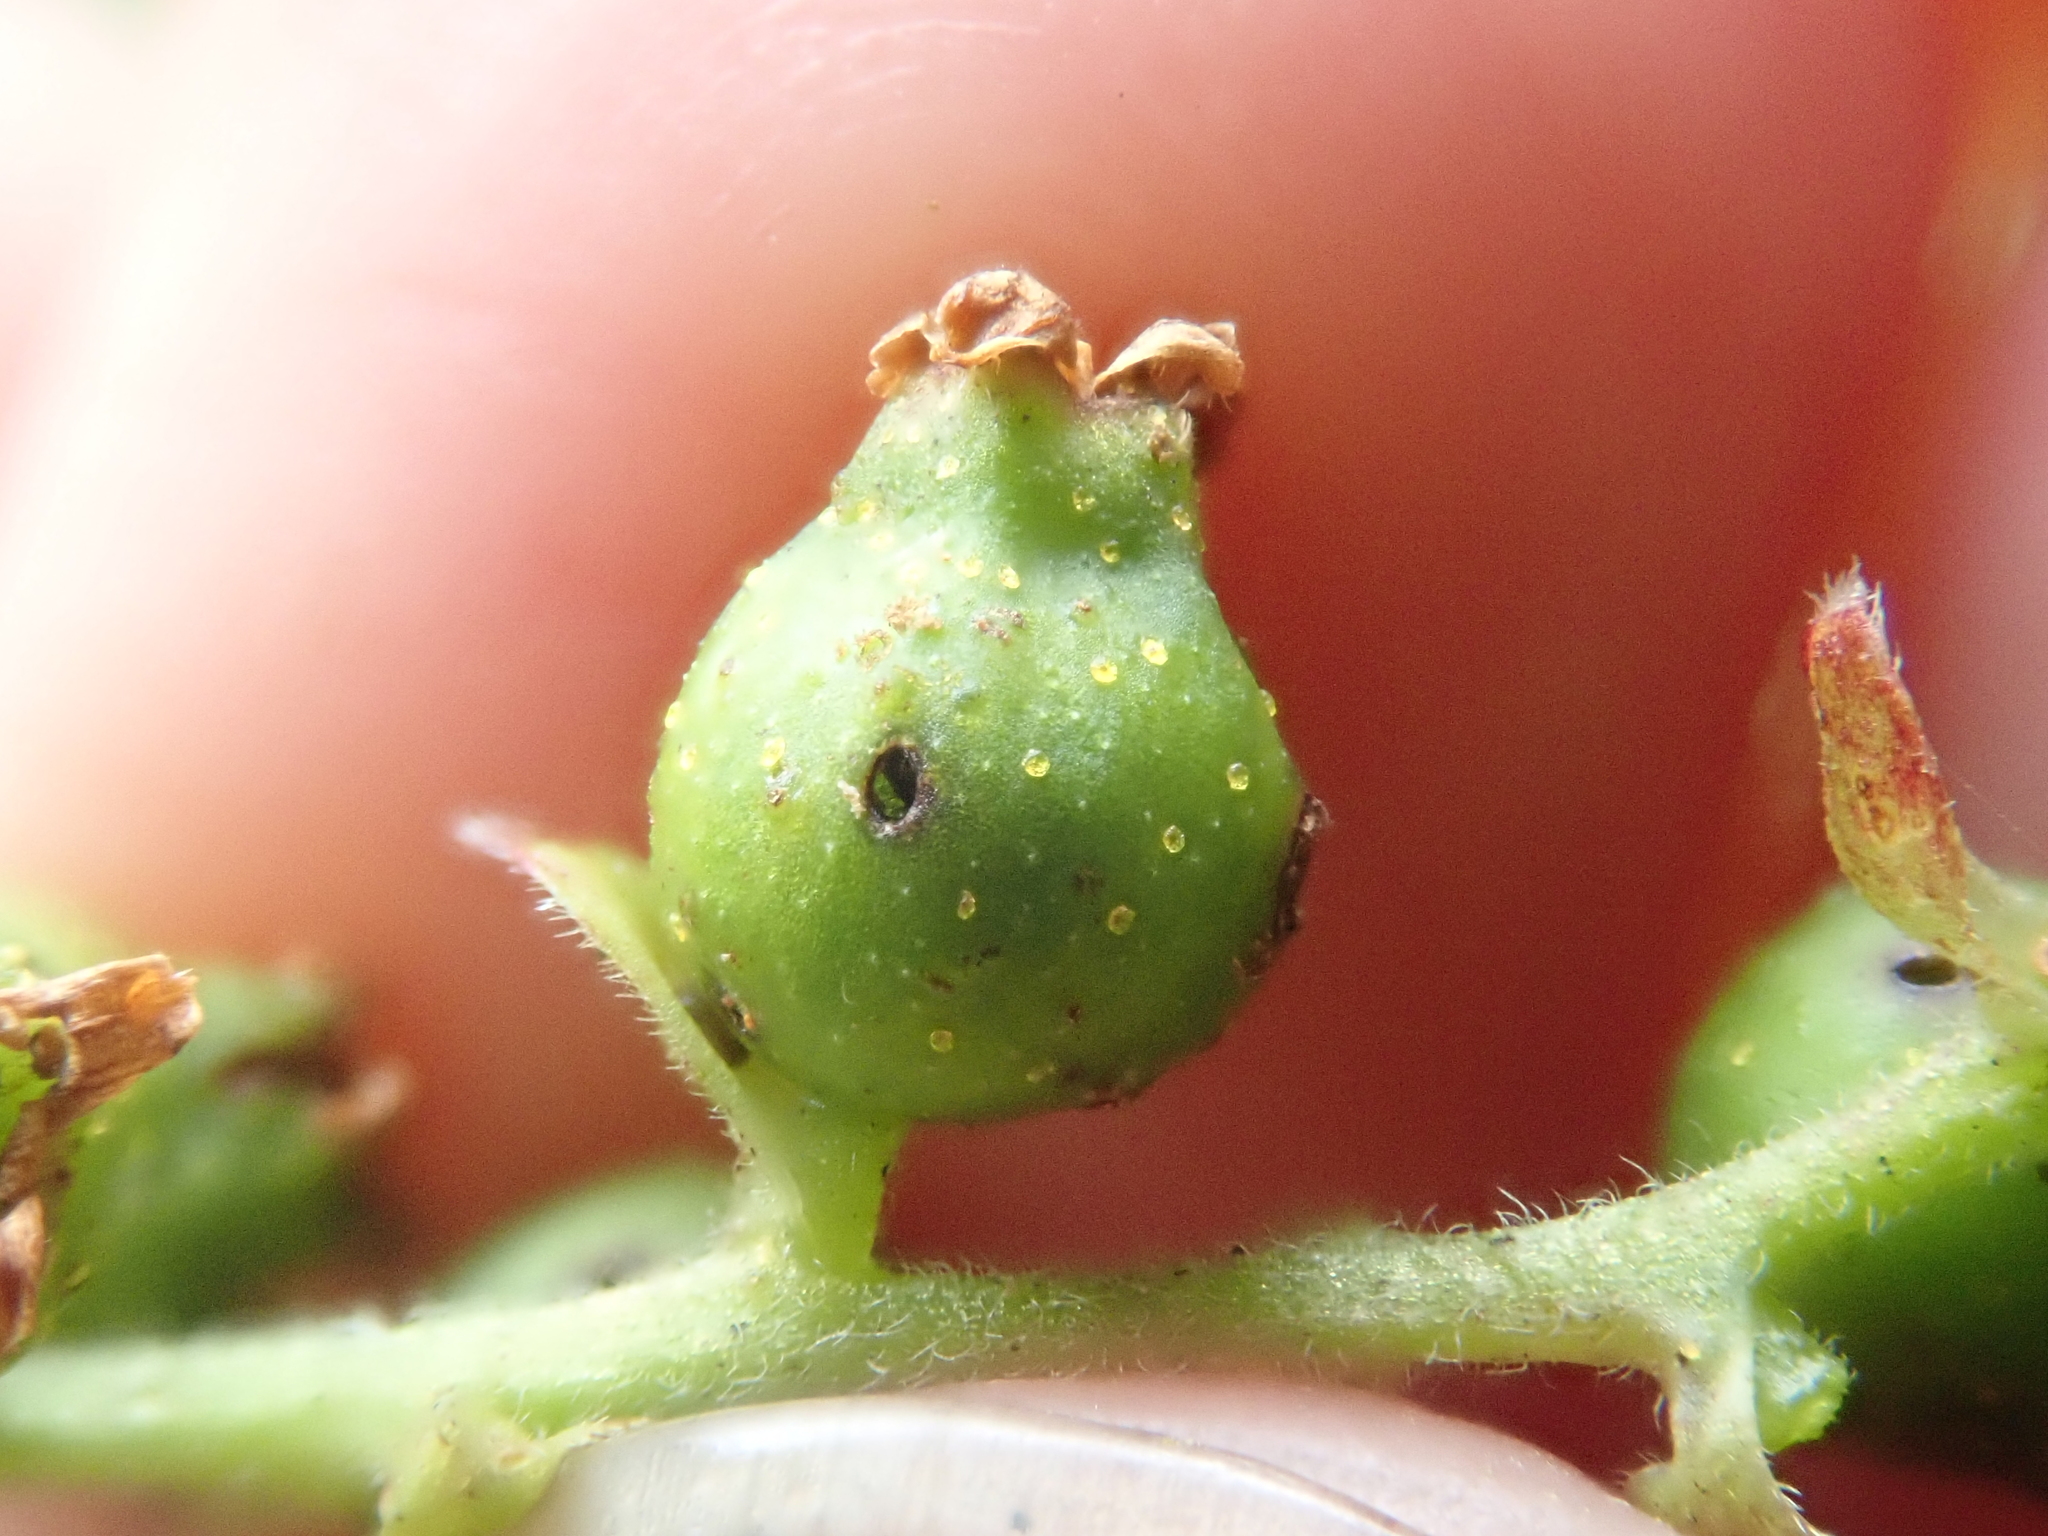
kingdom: Plantae
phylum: Tracheophyta
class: Magnoliopsida
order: Saxifragales
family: Grossulariaceae
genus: Ribes
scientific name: Ribes magellanicum
